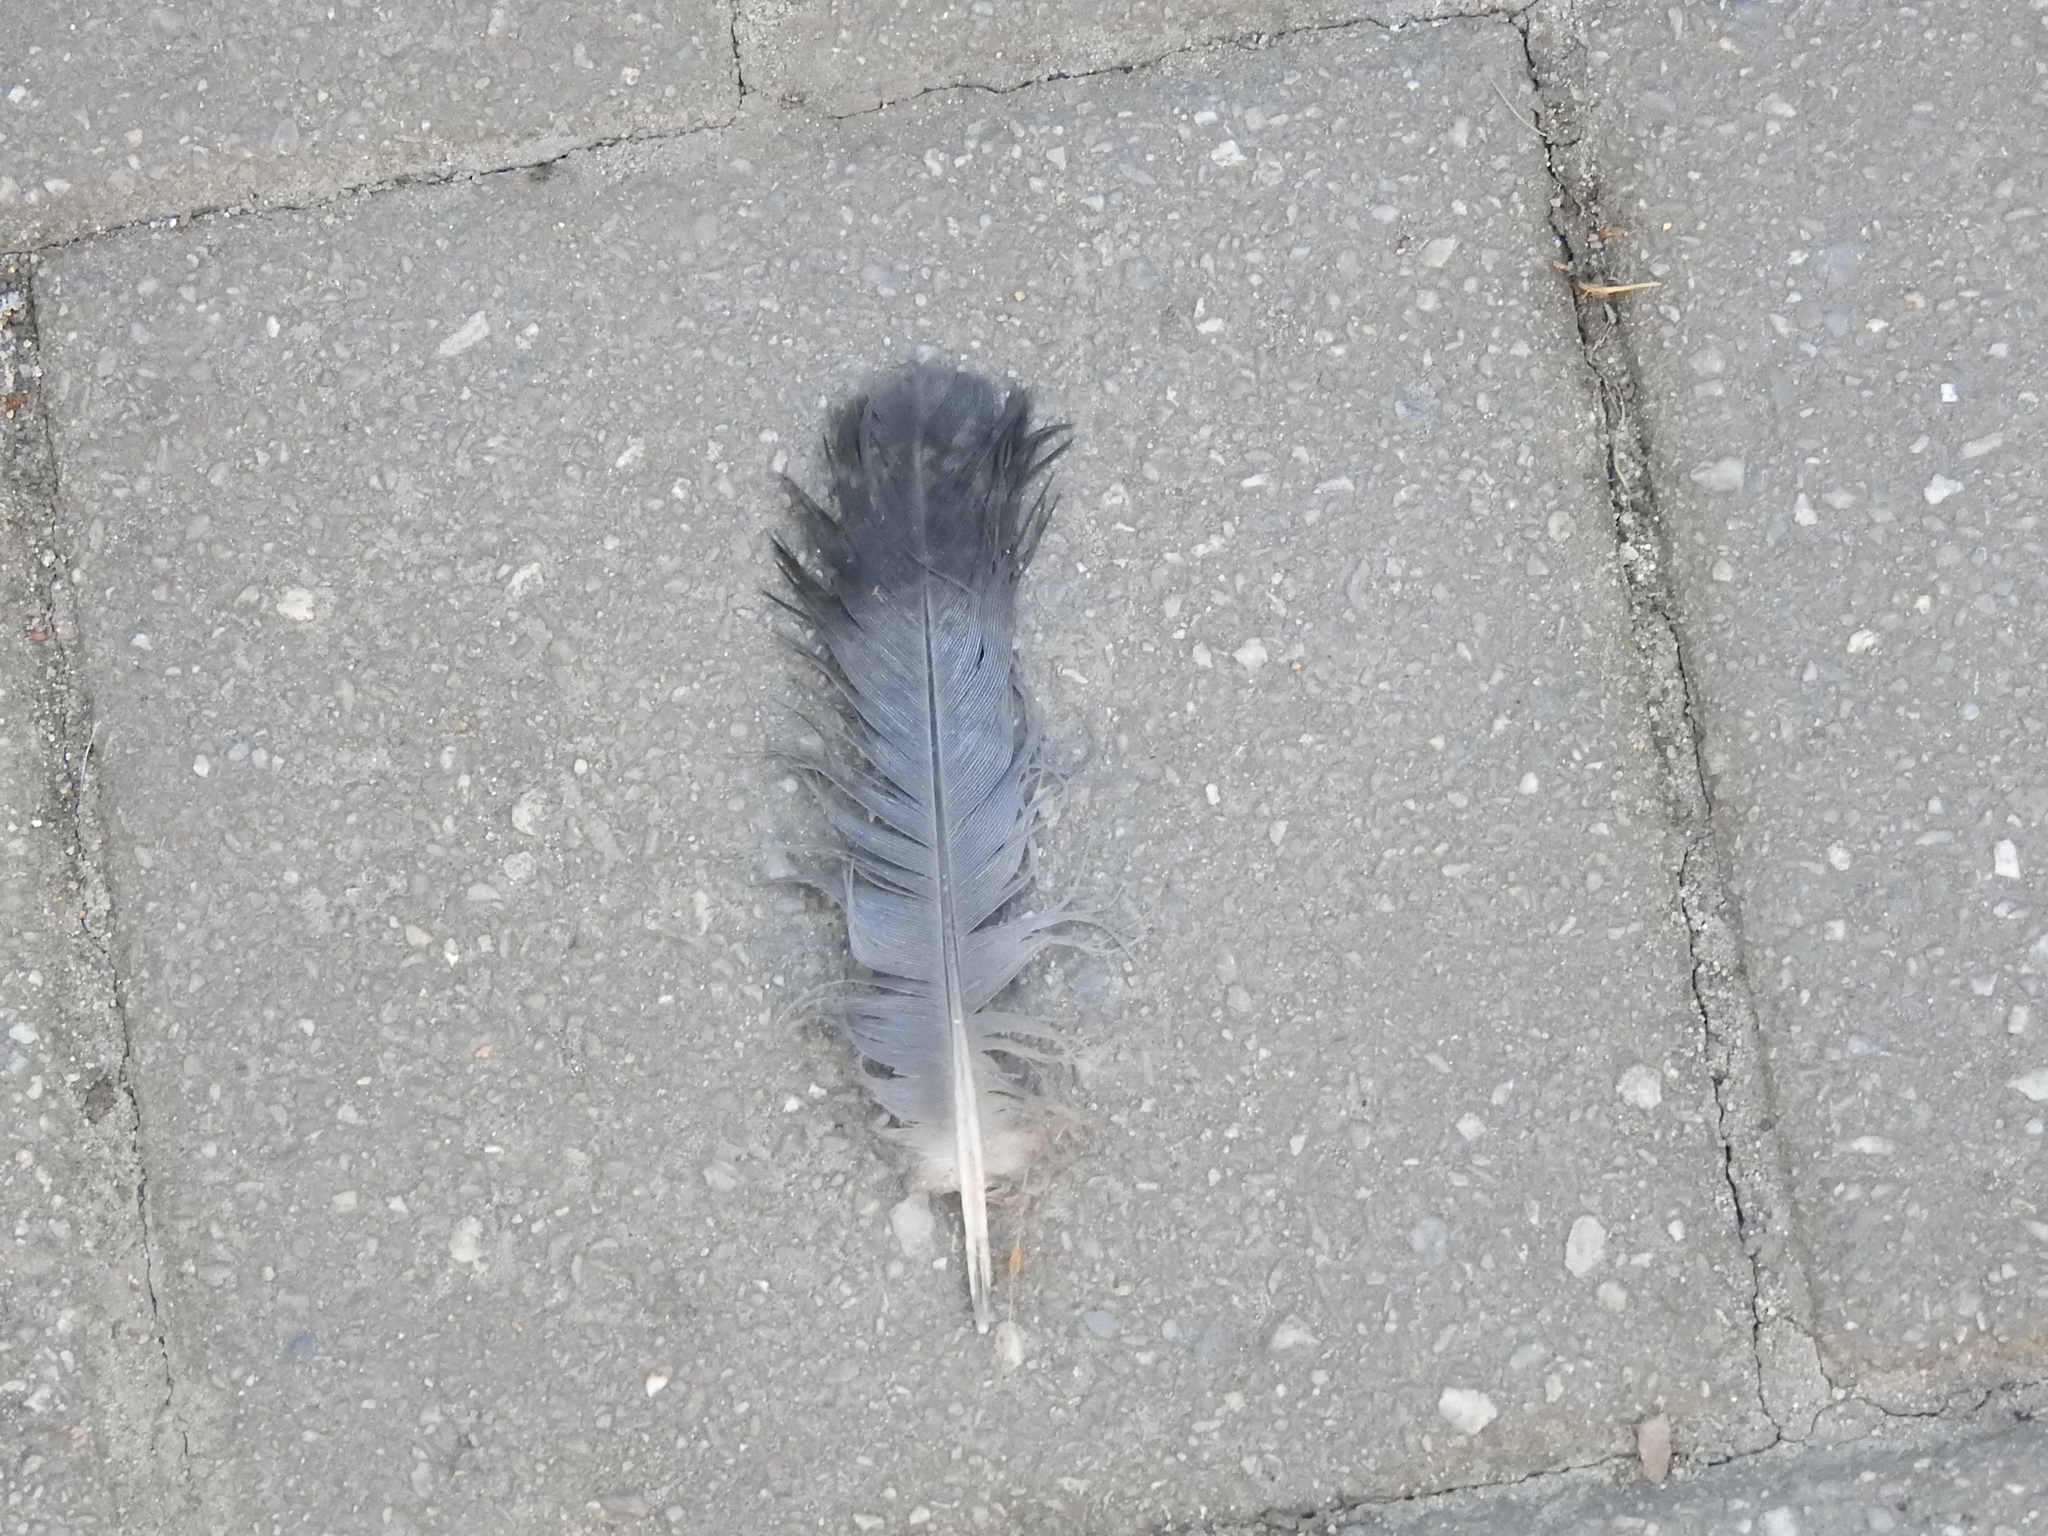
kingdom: Animalia
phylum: Chordata
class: Aves
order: Columbiformes
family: Columbidae
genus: Columba
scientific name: Columba livia
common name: Rock pigeon
